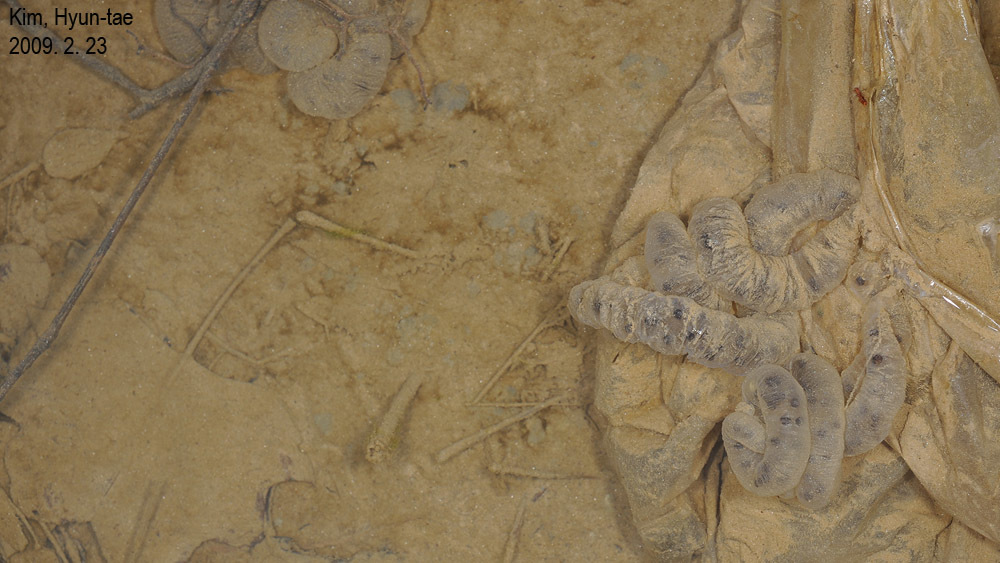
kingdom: Animalia
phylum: Chordata
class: Amphibia
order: Caudata
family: Hynobiidae
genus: Hynobius
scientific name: Hynobius leechii
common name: Gensan salamander
